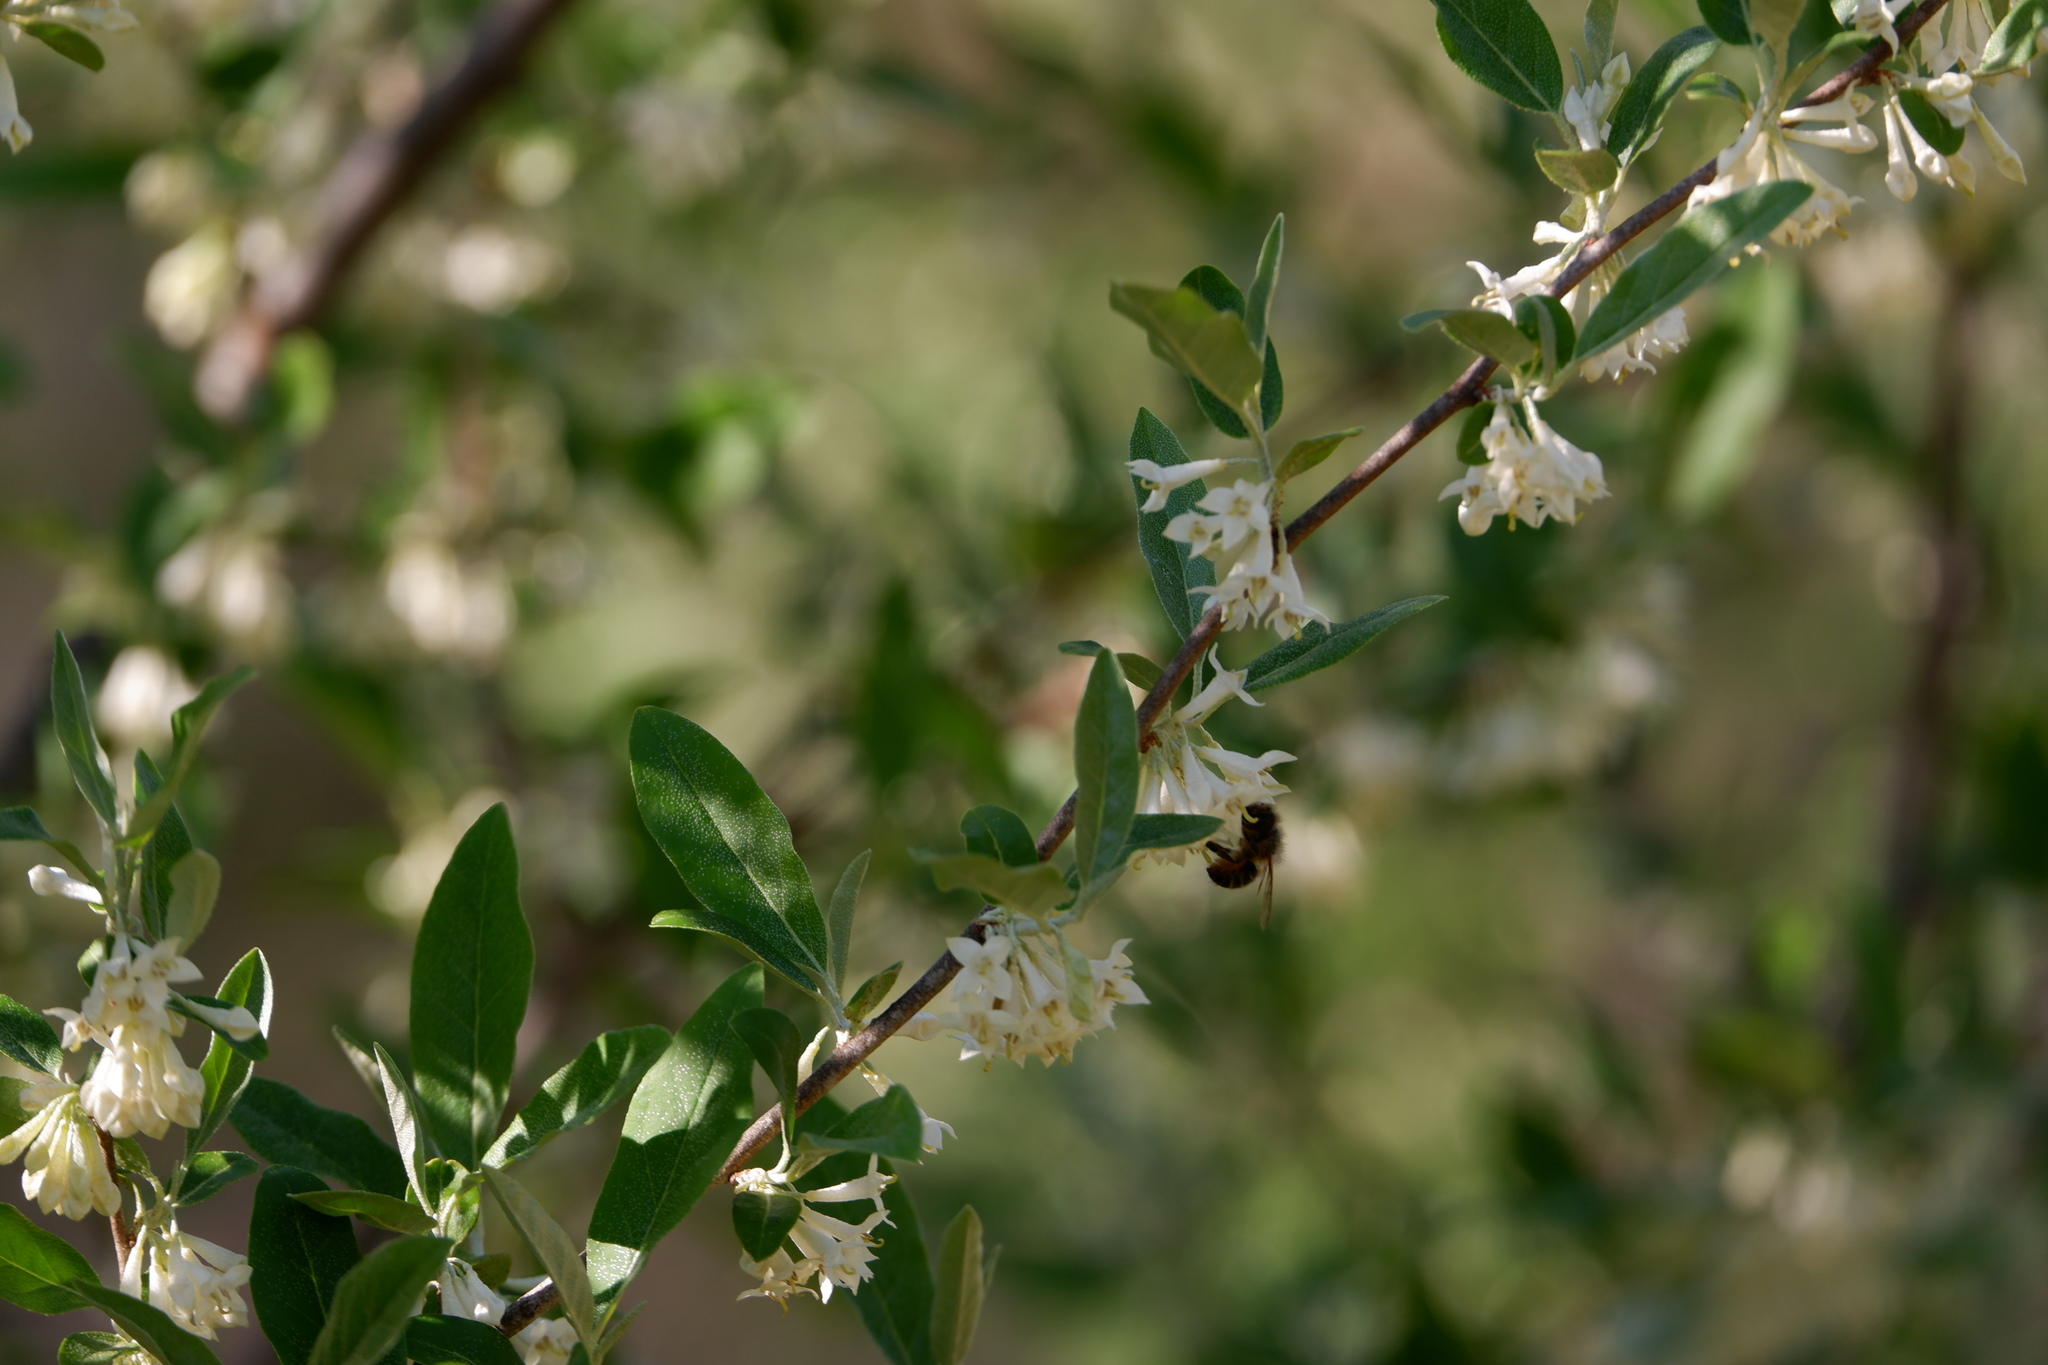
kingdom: Animalia
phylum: Arthropoda
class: Insecta
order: Hymenoptera
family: Megachilidae
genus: Osmia
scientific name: Osmia cornifrons
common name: Horn-faced bee
